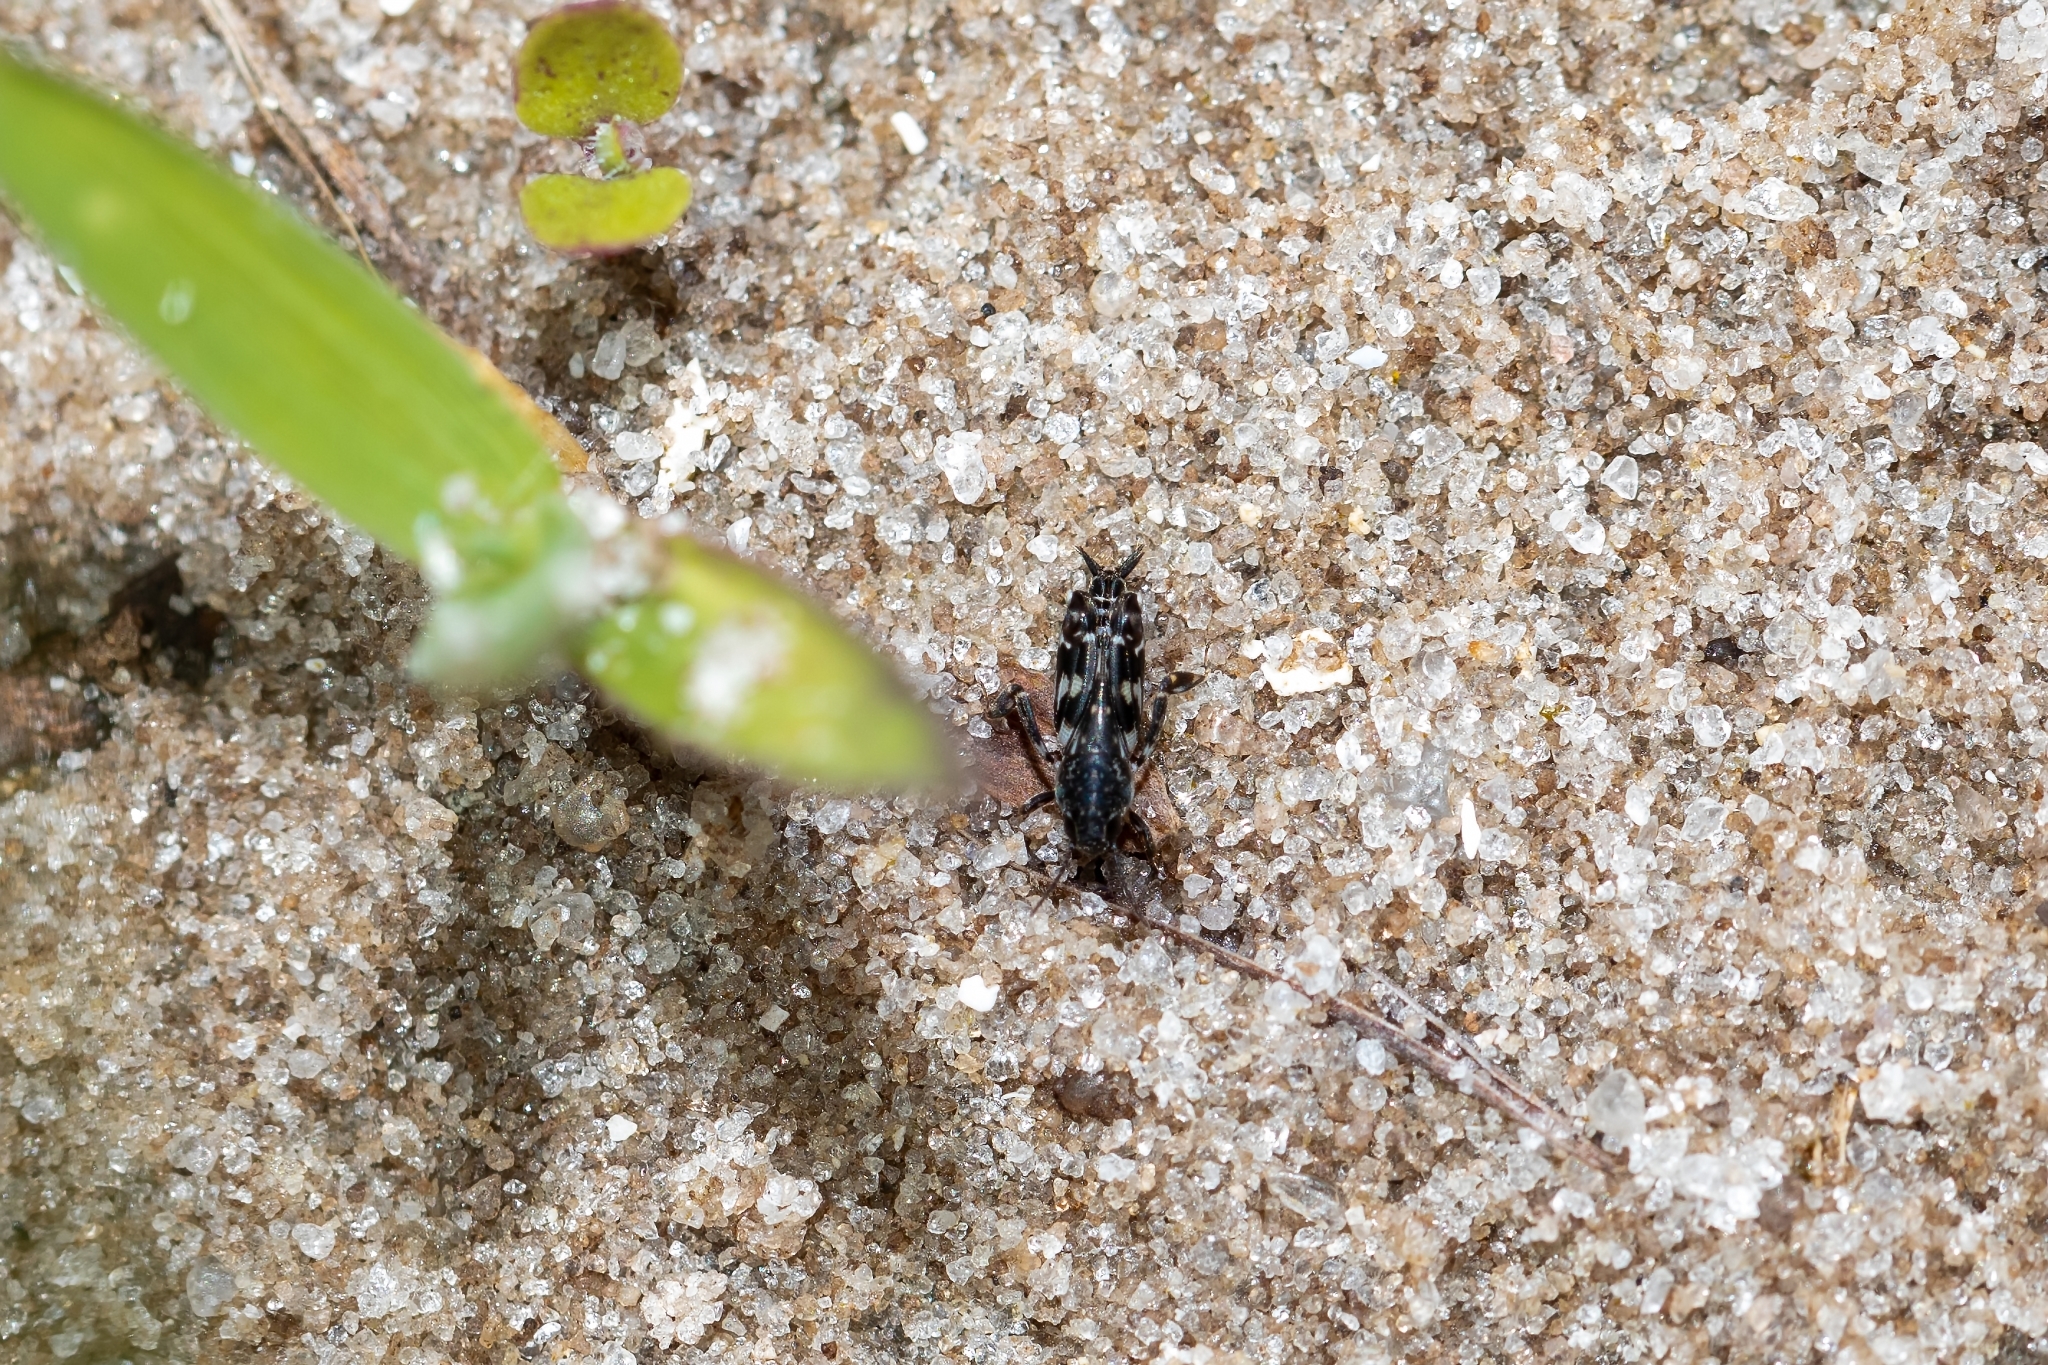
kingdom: Animalia
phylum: Arthropoda
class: Insecta
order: Orthoptera
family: Tridactylidae
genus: Ellipes
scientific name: Ellipes minuta
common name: Minute pygmy locust
